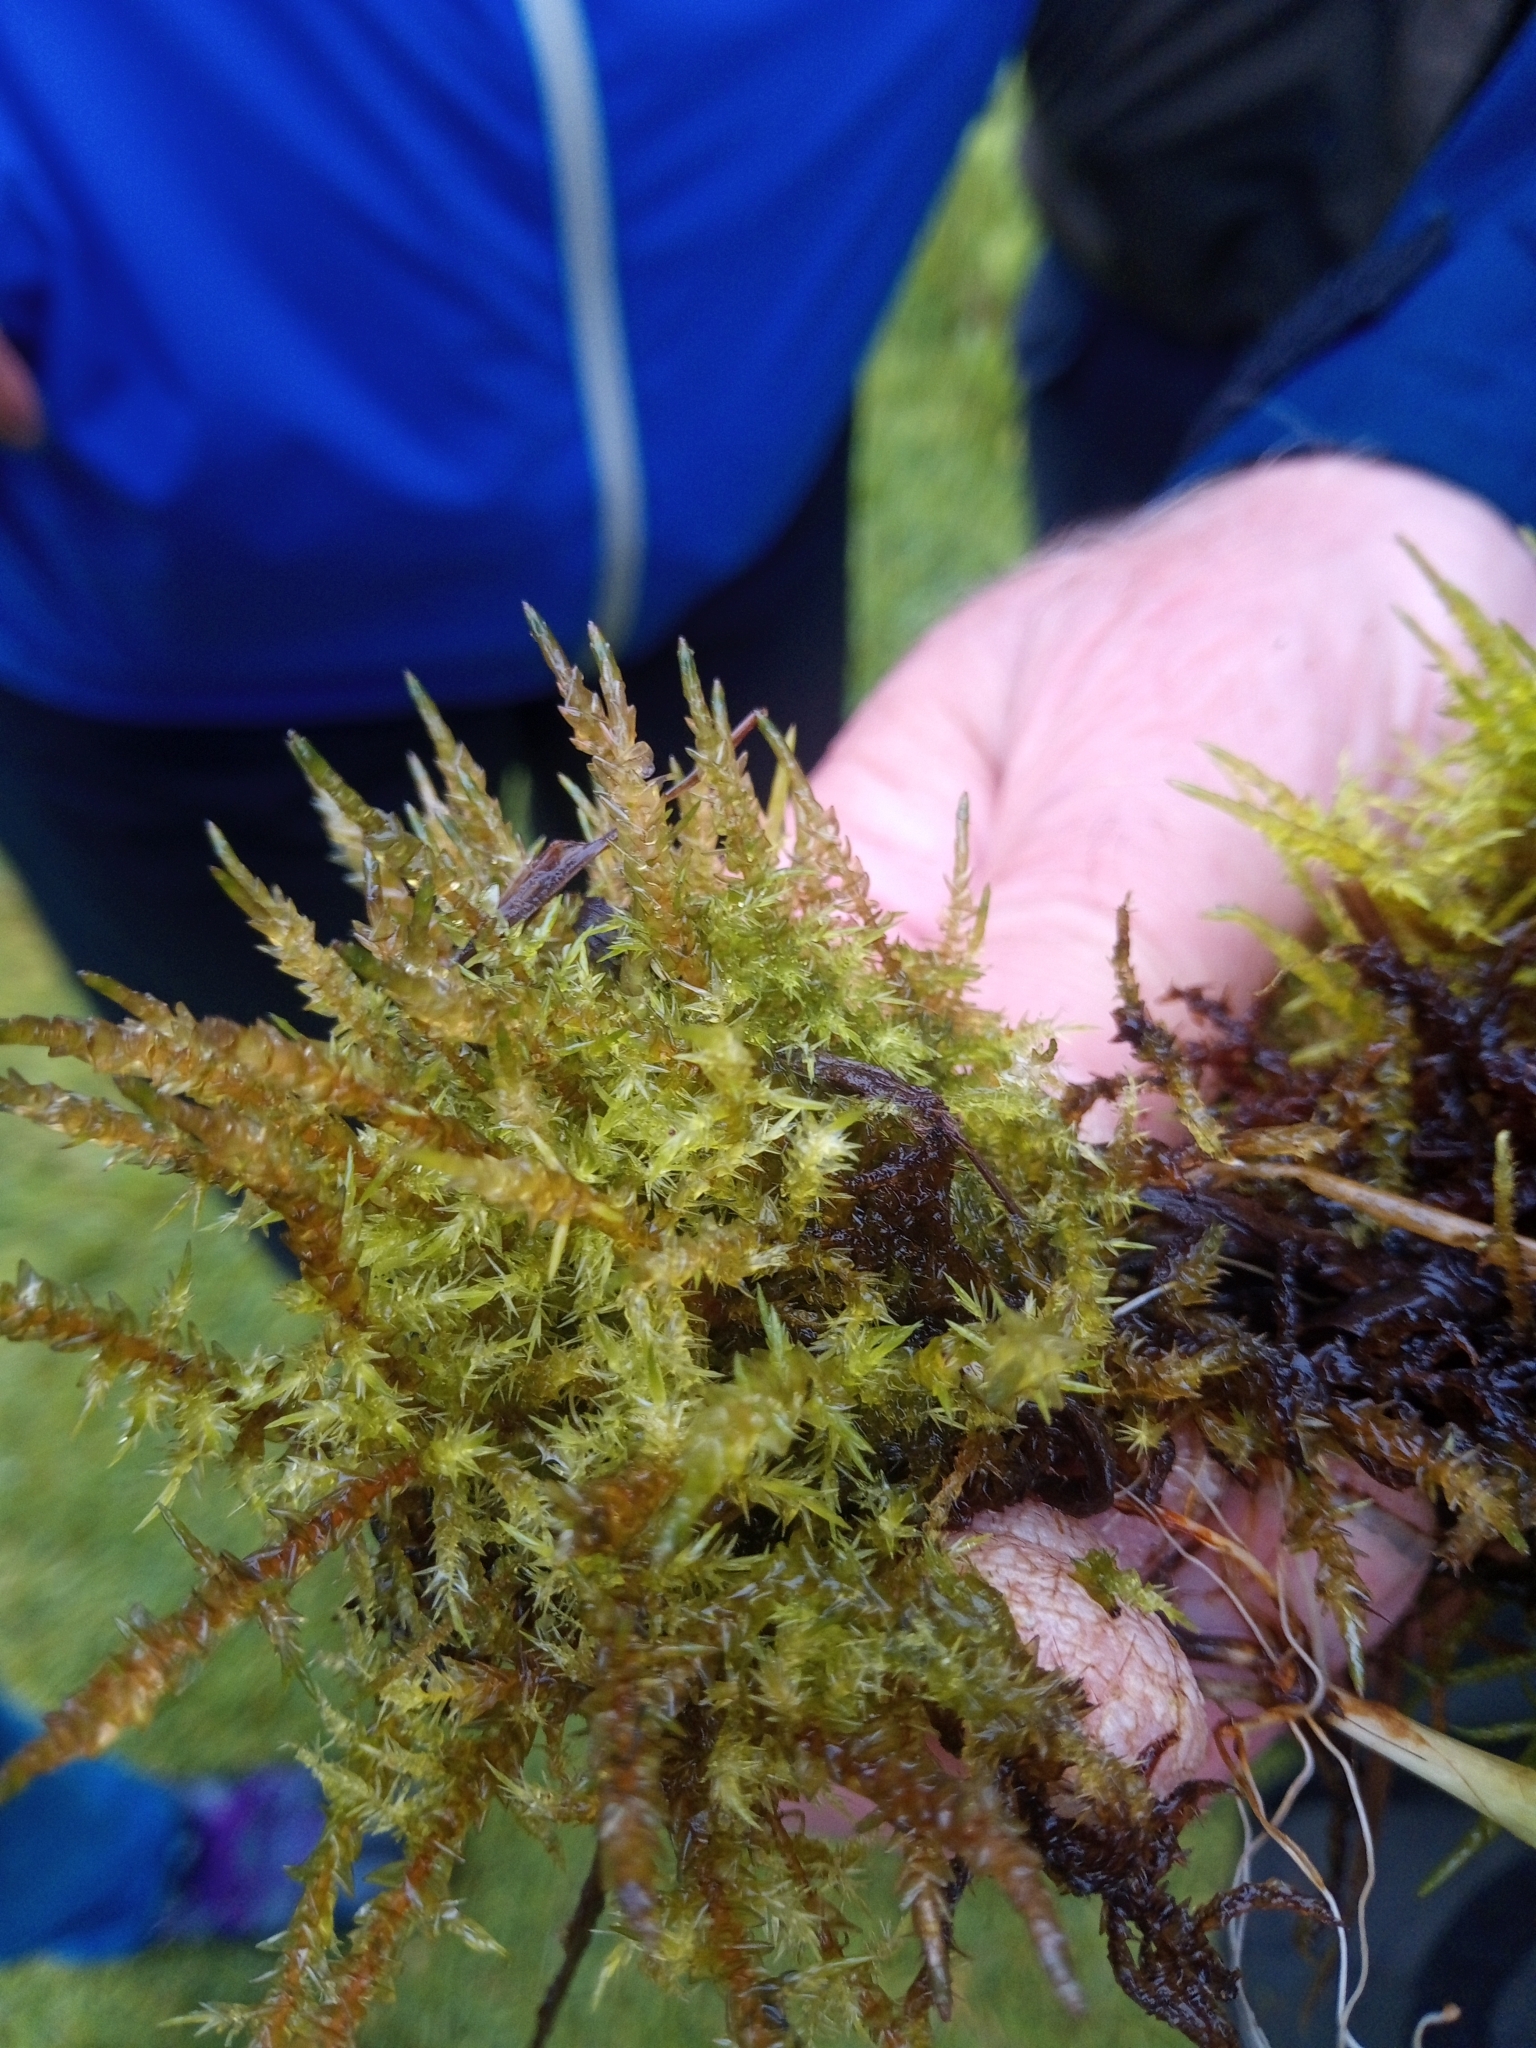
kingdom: Plantae
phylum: Bryophyta
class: Bryopsida
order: Hypnales
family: Calliergonaceae
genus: Calliergon
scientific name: Calliergon giganteum
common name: Giant spear moss
